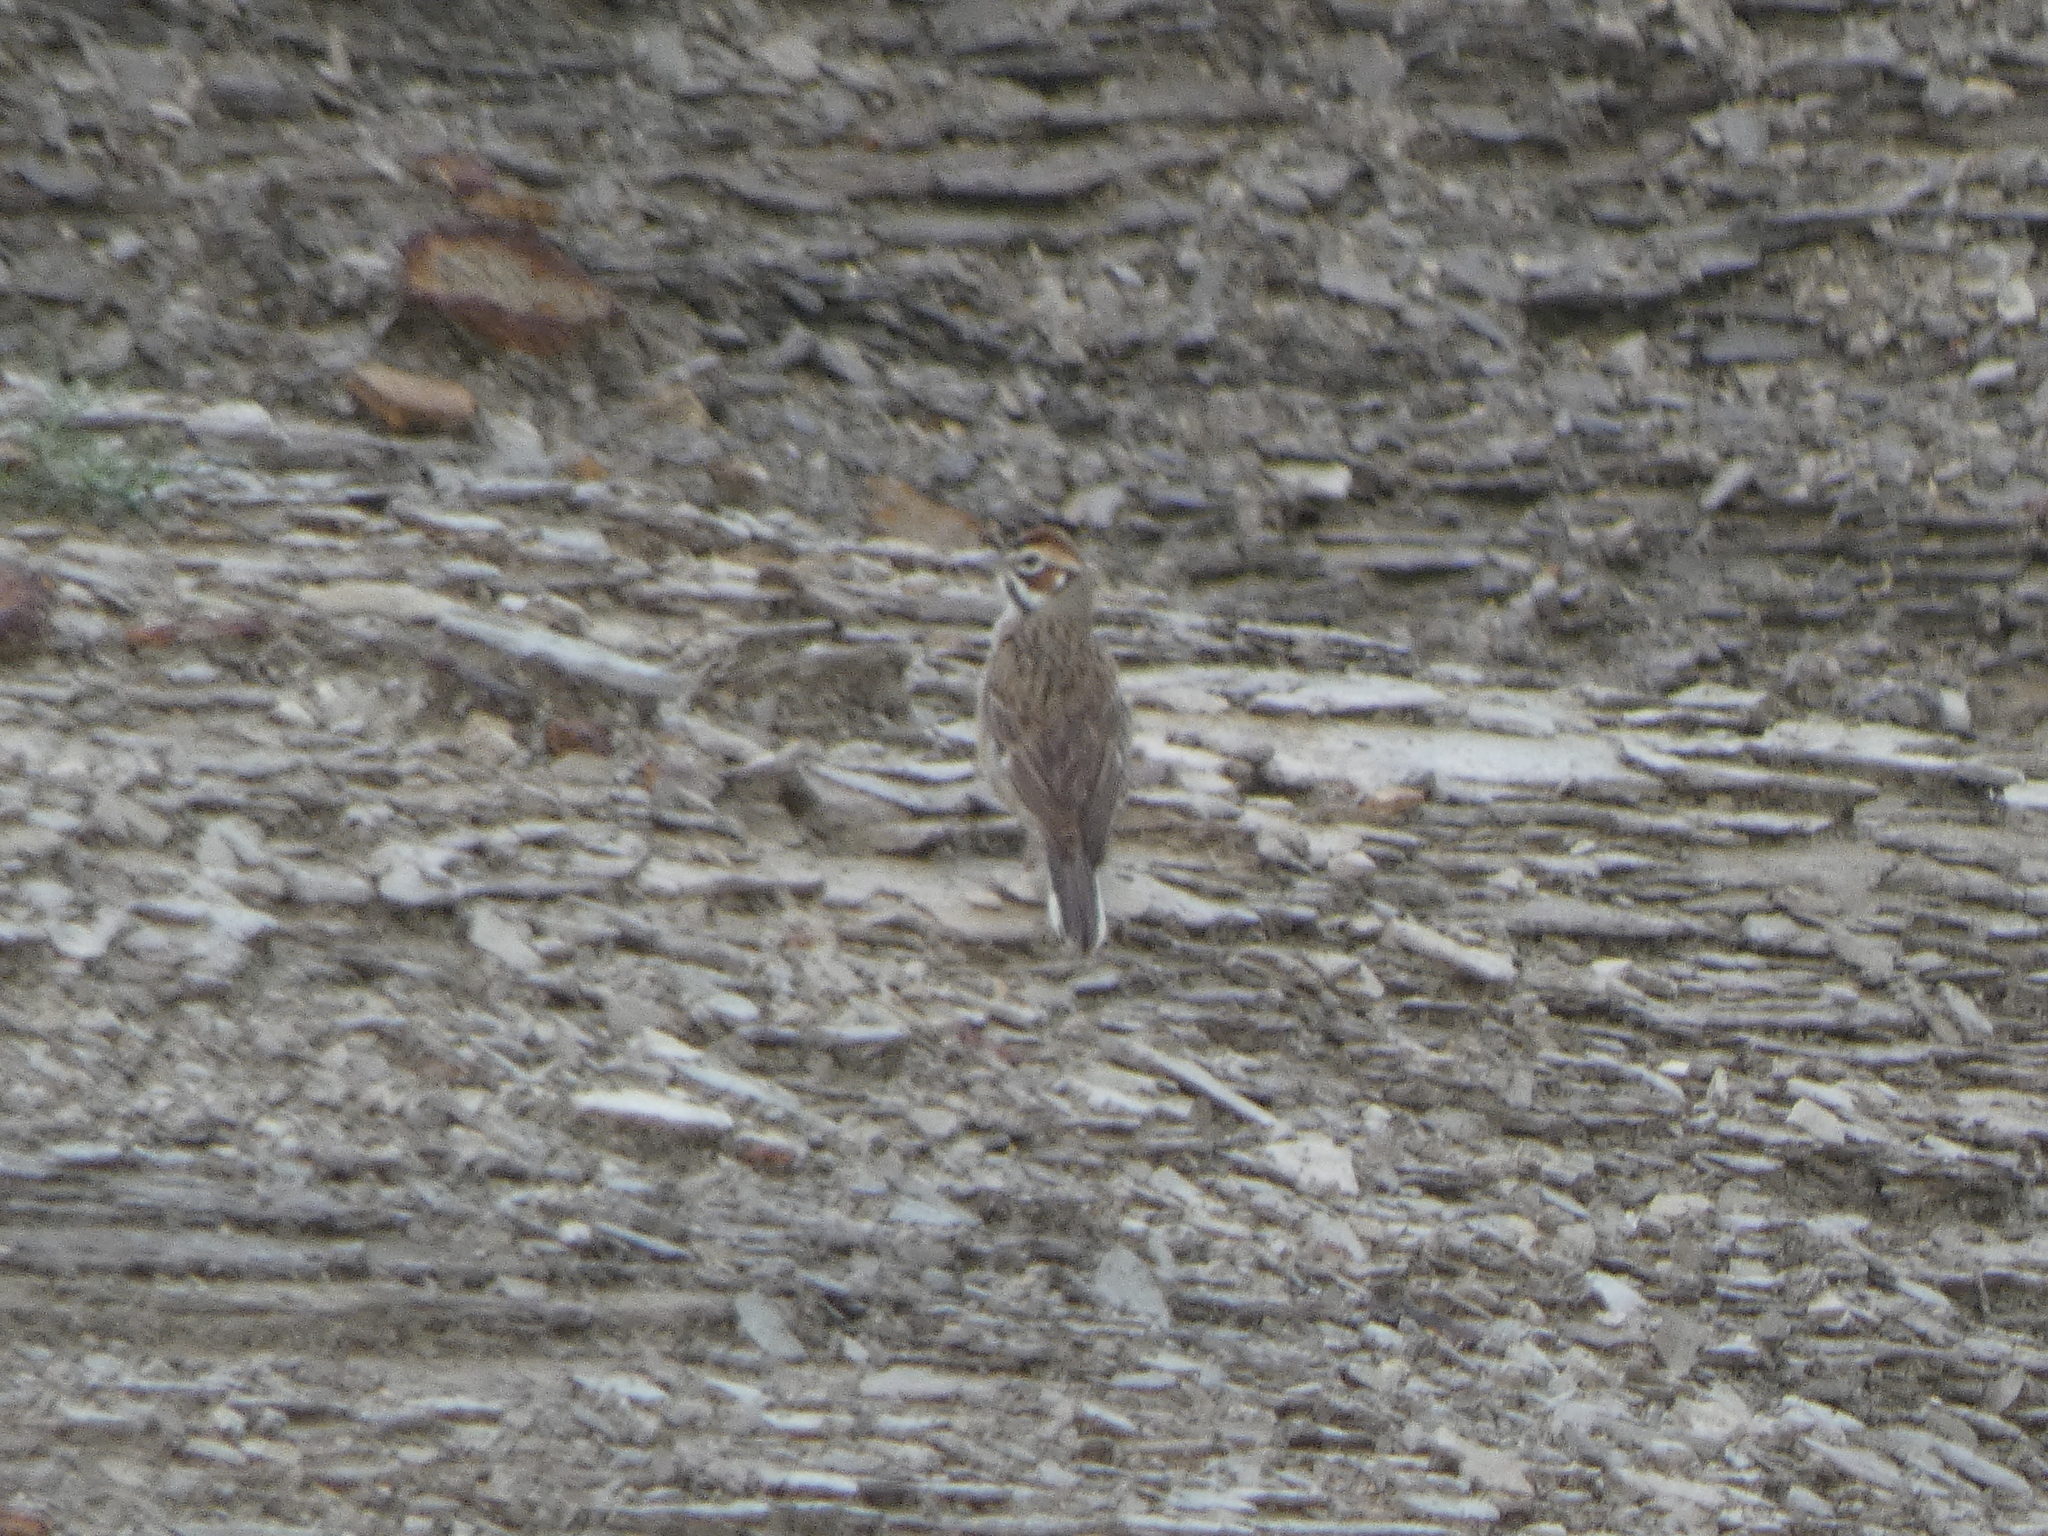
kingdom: Animalia
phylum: Chordata
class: Aves
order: Passeriformes
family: Passerellidae
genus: Chondestes
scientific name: Chondestes grammacus
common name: Lark sparrow
